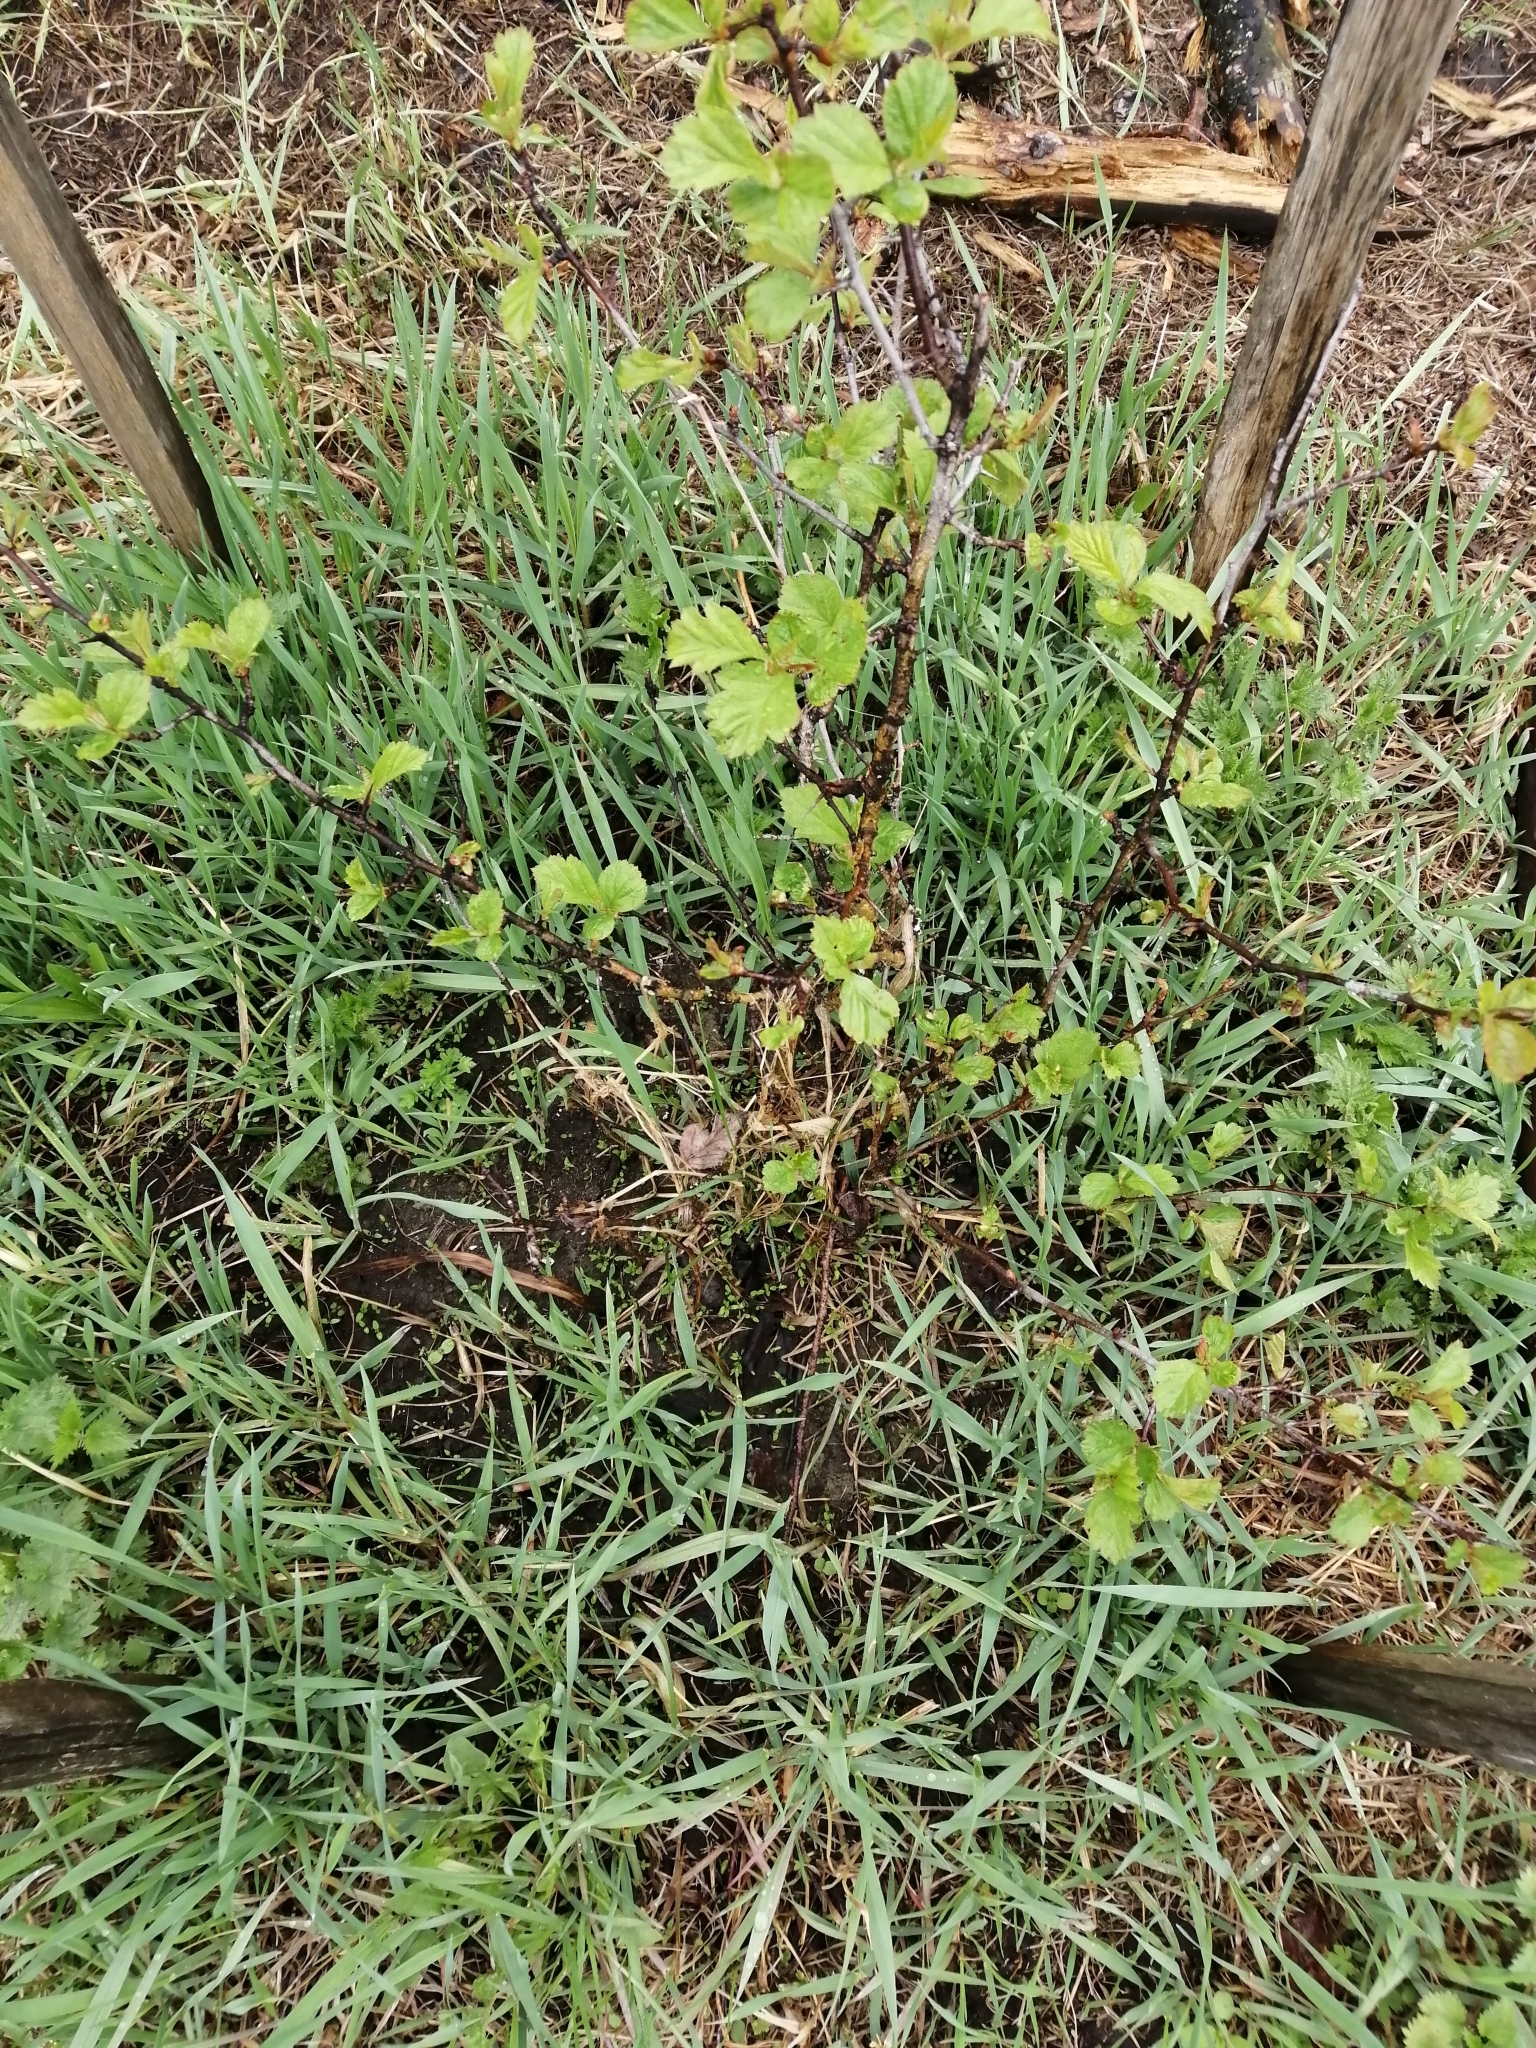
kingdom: Plantae
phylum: Tracheophyta
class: Magnoliopsida
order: Rosales
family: Rosaceae
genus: Crataegus
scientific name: Crataegus sanguinea
